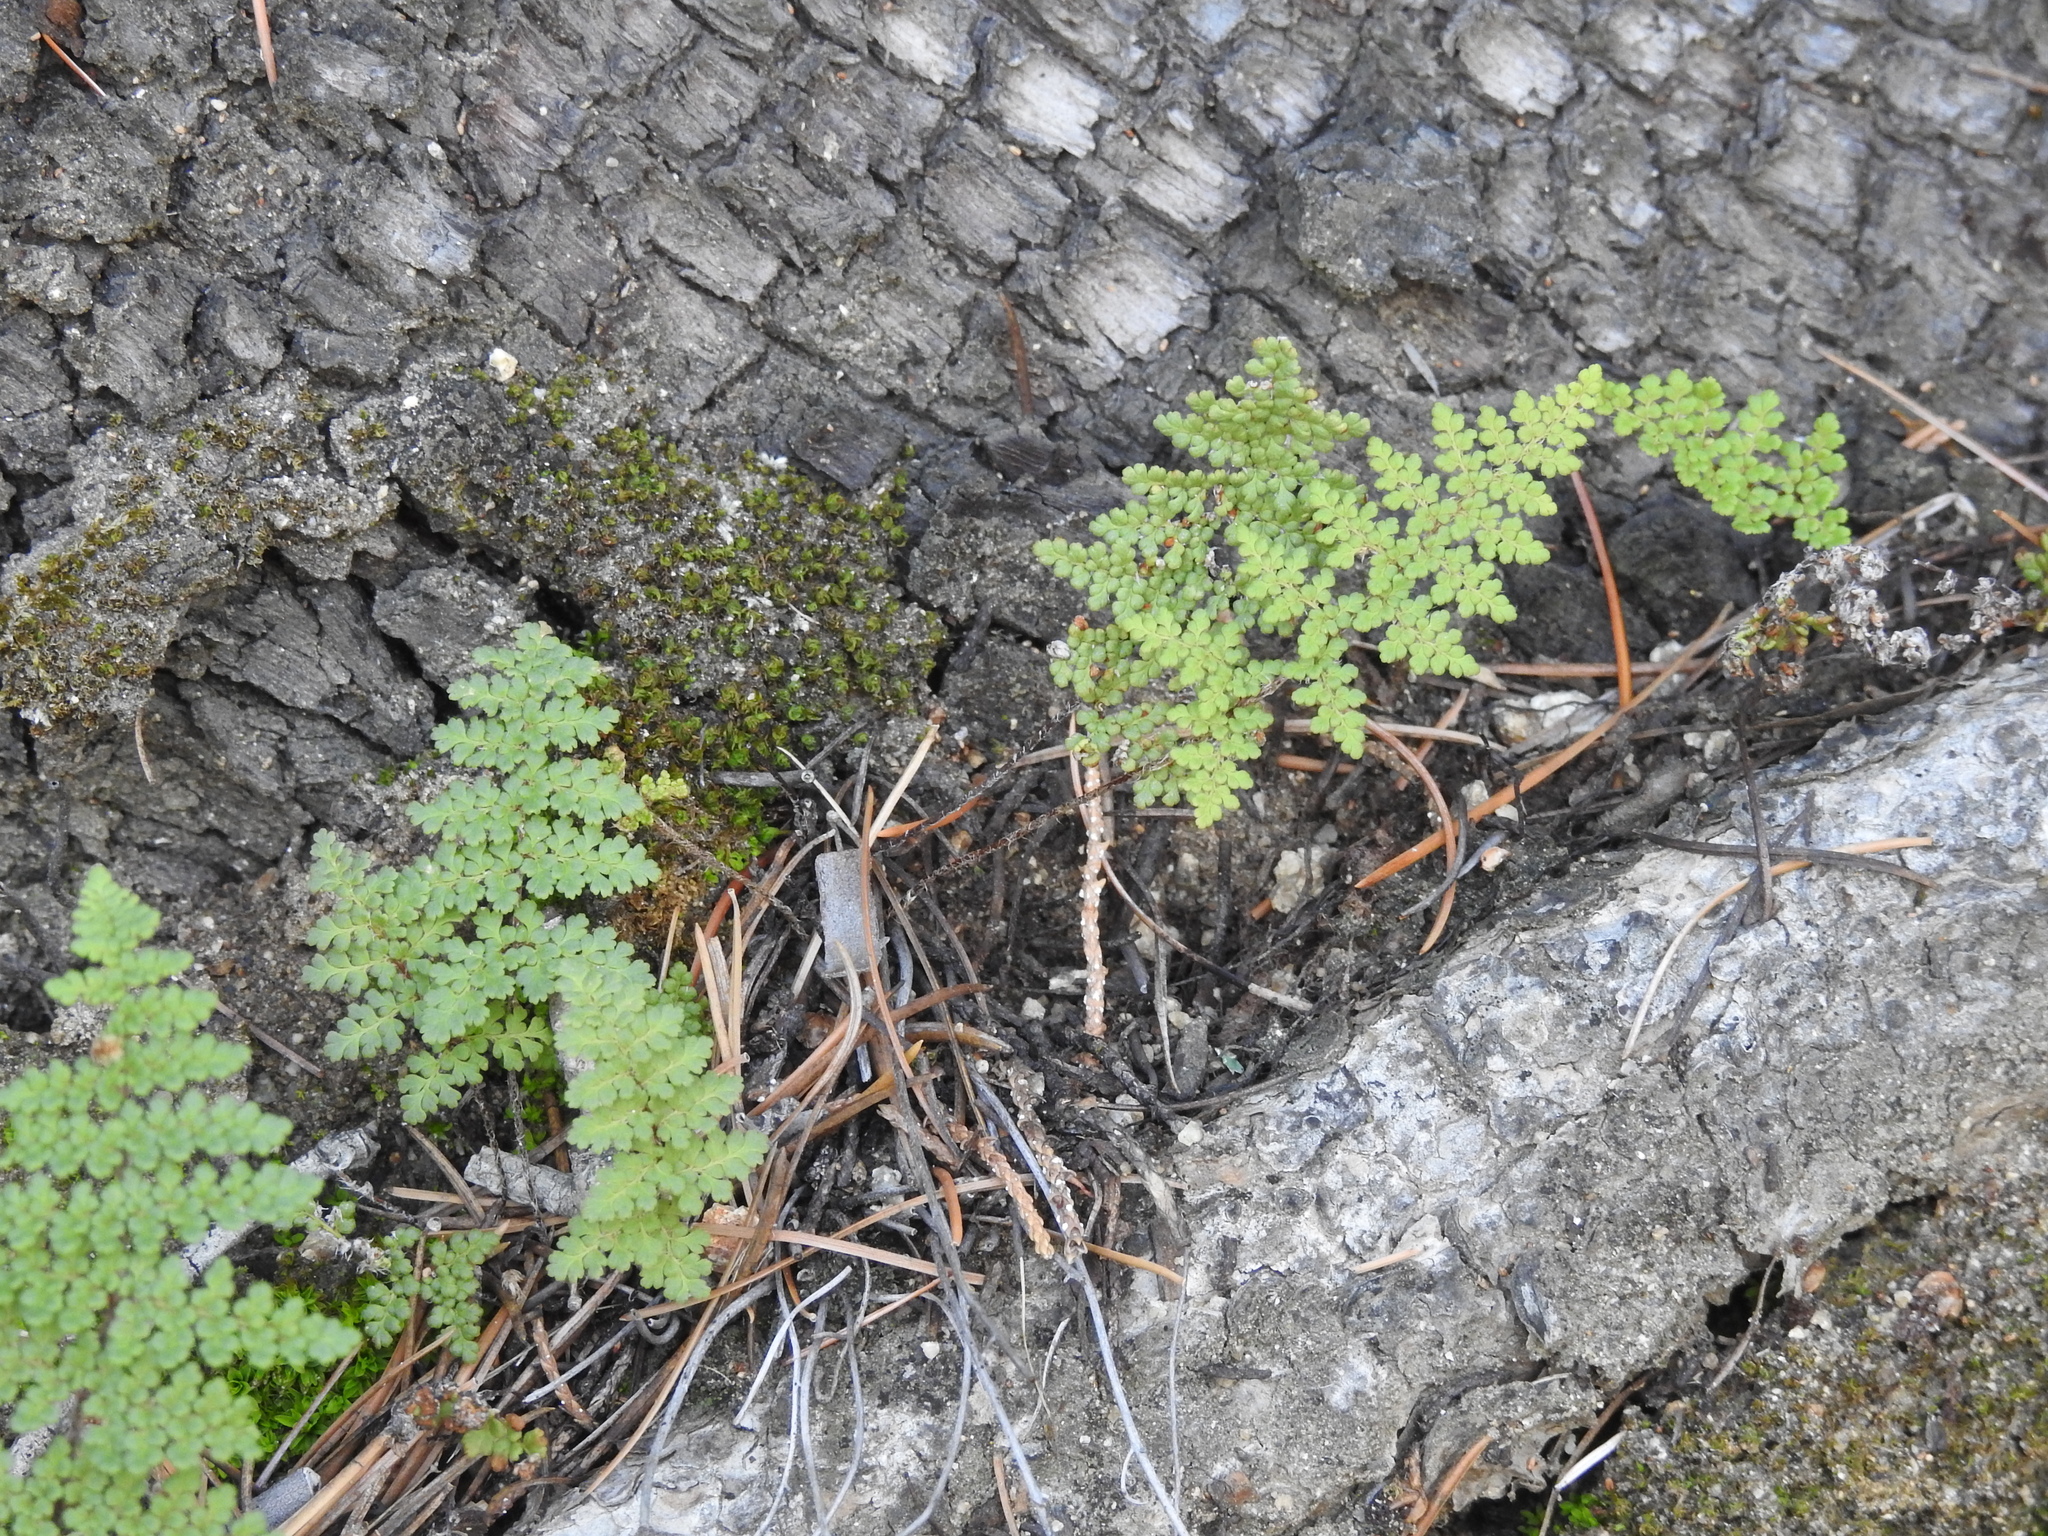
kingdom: Plantae
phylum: Tracheophyta
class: Polypodiopsida
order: Polypodiales
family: Pteridaceae
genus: Myriopteris
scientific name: Myriopteris fendleri
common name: Fendler's lip fern
